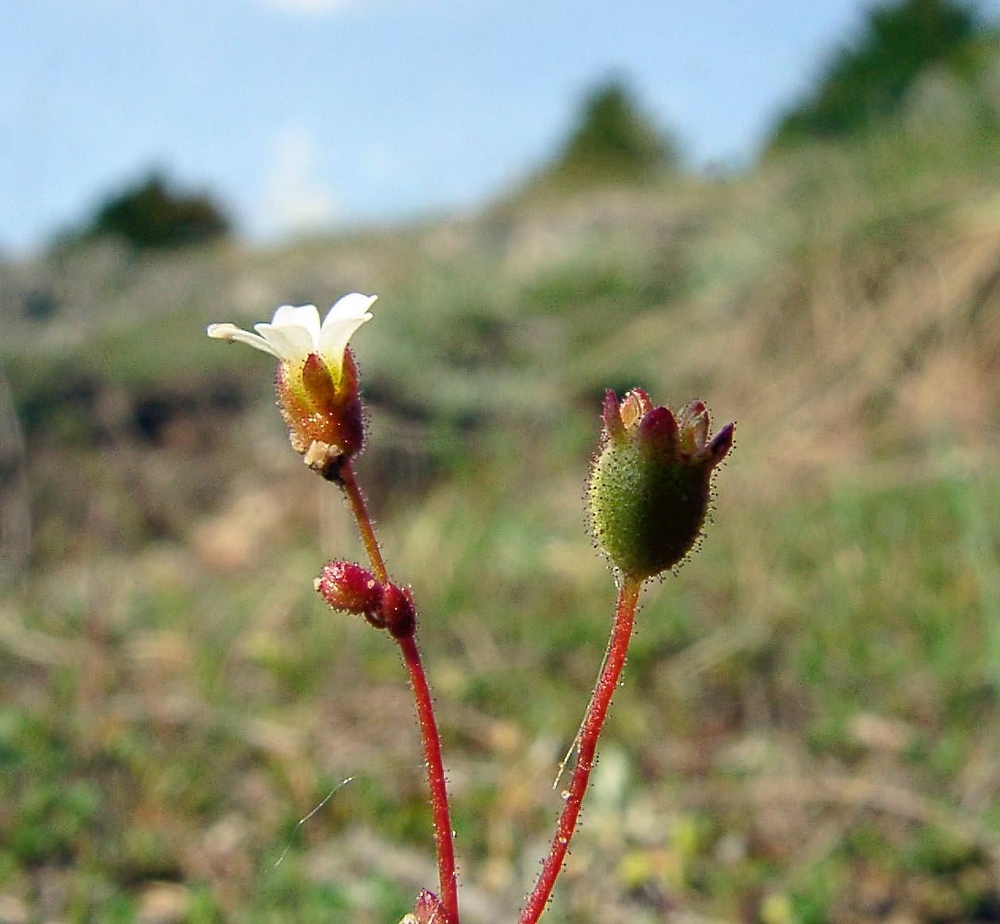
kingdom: Plantae
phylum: Tracheophyta
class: Magnoliopsida
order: Saxifragales
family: Saxifragaceae
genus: Saxifraga
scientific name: Saxifraga tridactylites
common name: Rue-leaved saxifrage
